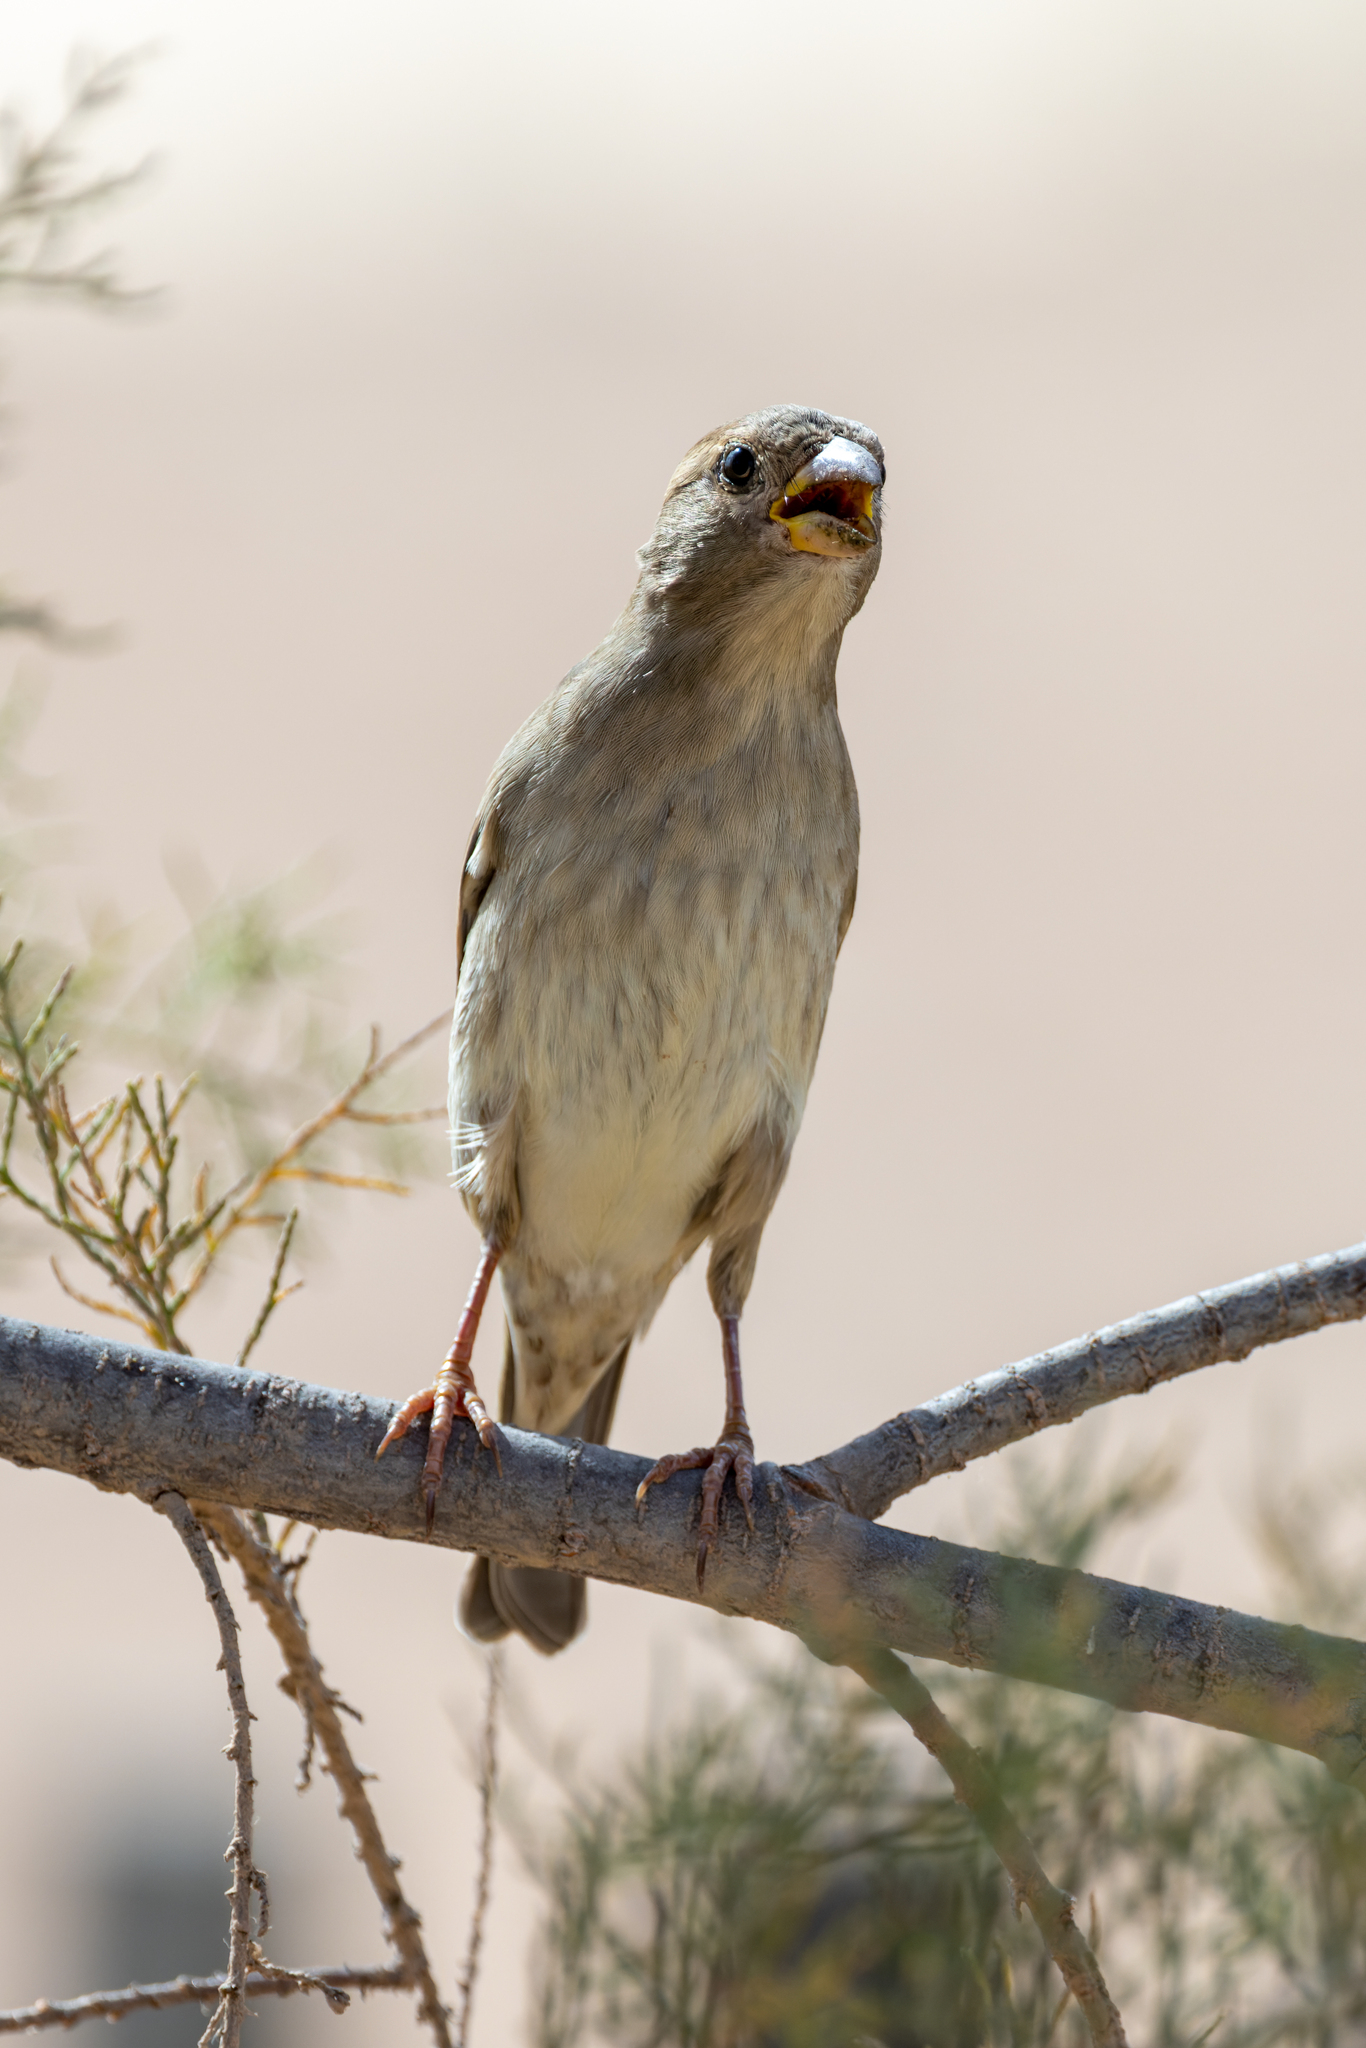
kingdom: Animalia
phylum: Chordata
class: Aves
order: Passeriformes
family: Passeridae
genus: Passer
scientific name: Passer domesticus
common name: House sparrow
